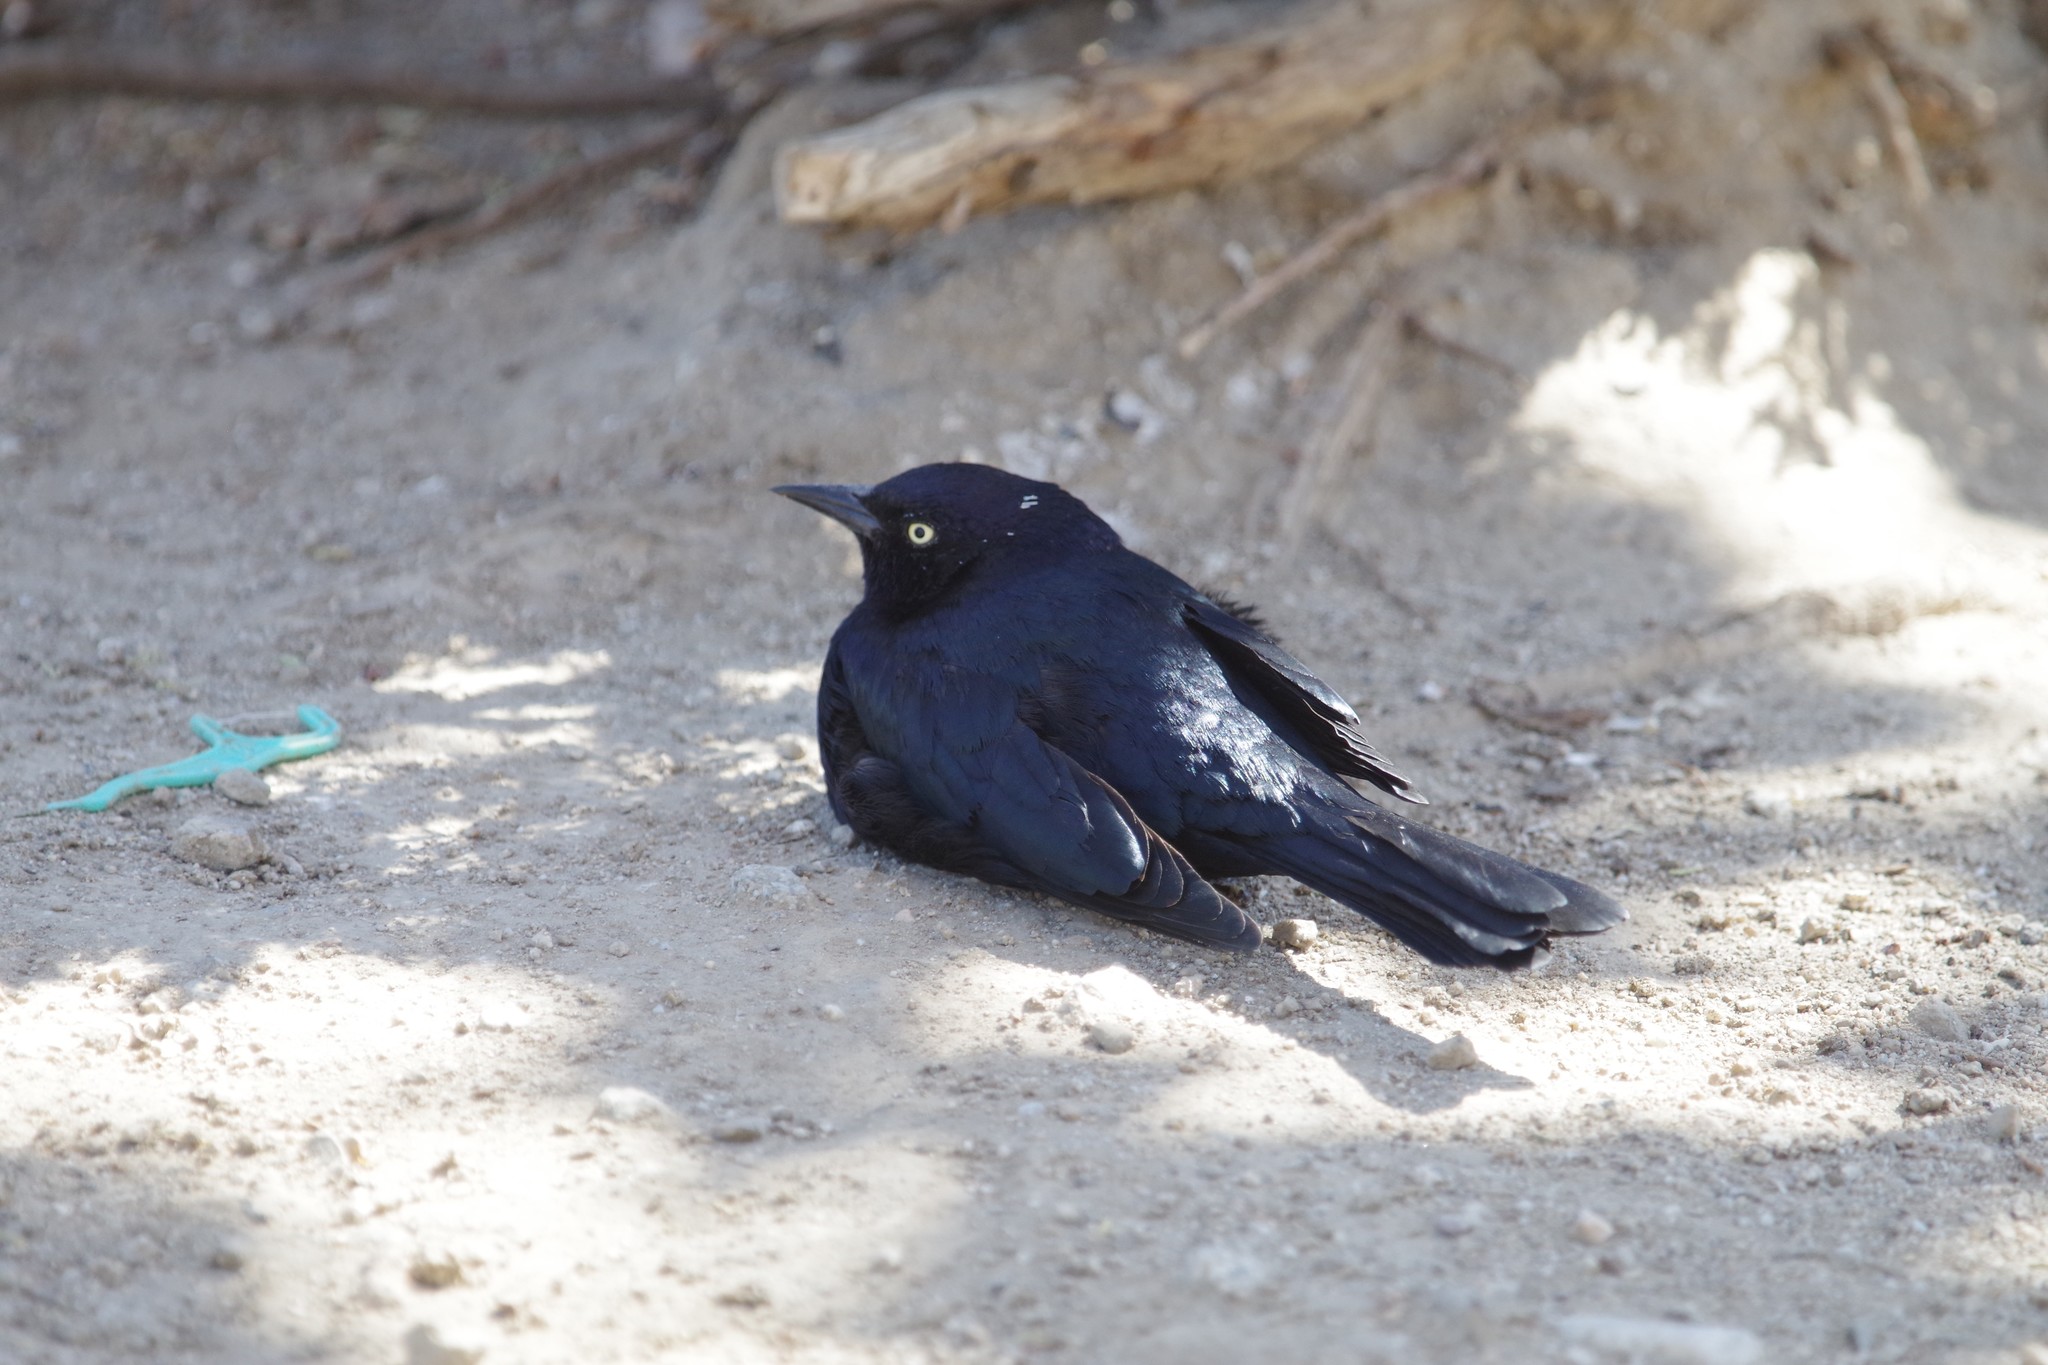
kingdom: Animalia
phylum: Chordata
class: Aves
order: Passeriformes
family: Icteridae
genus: Euphagus
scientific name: Euphagus cyanocephalus
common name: Brewer's blackbird
